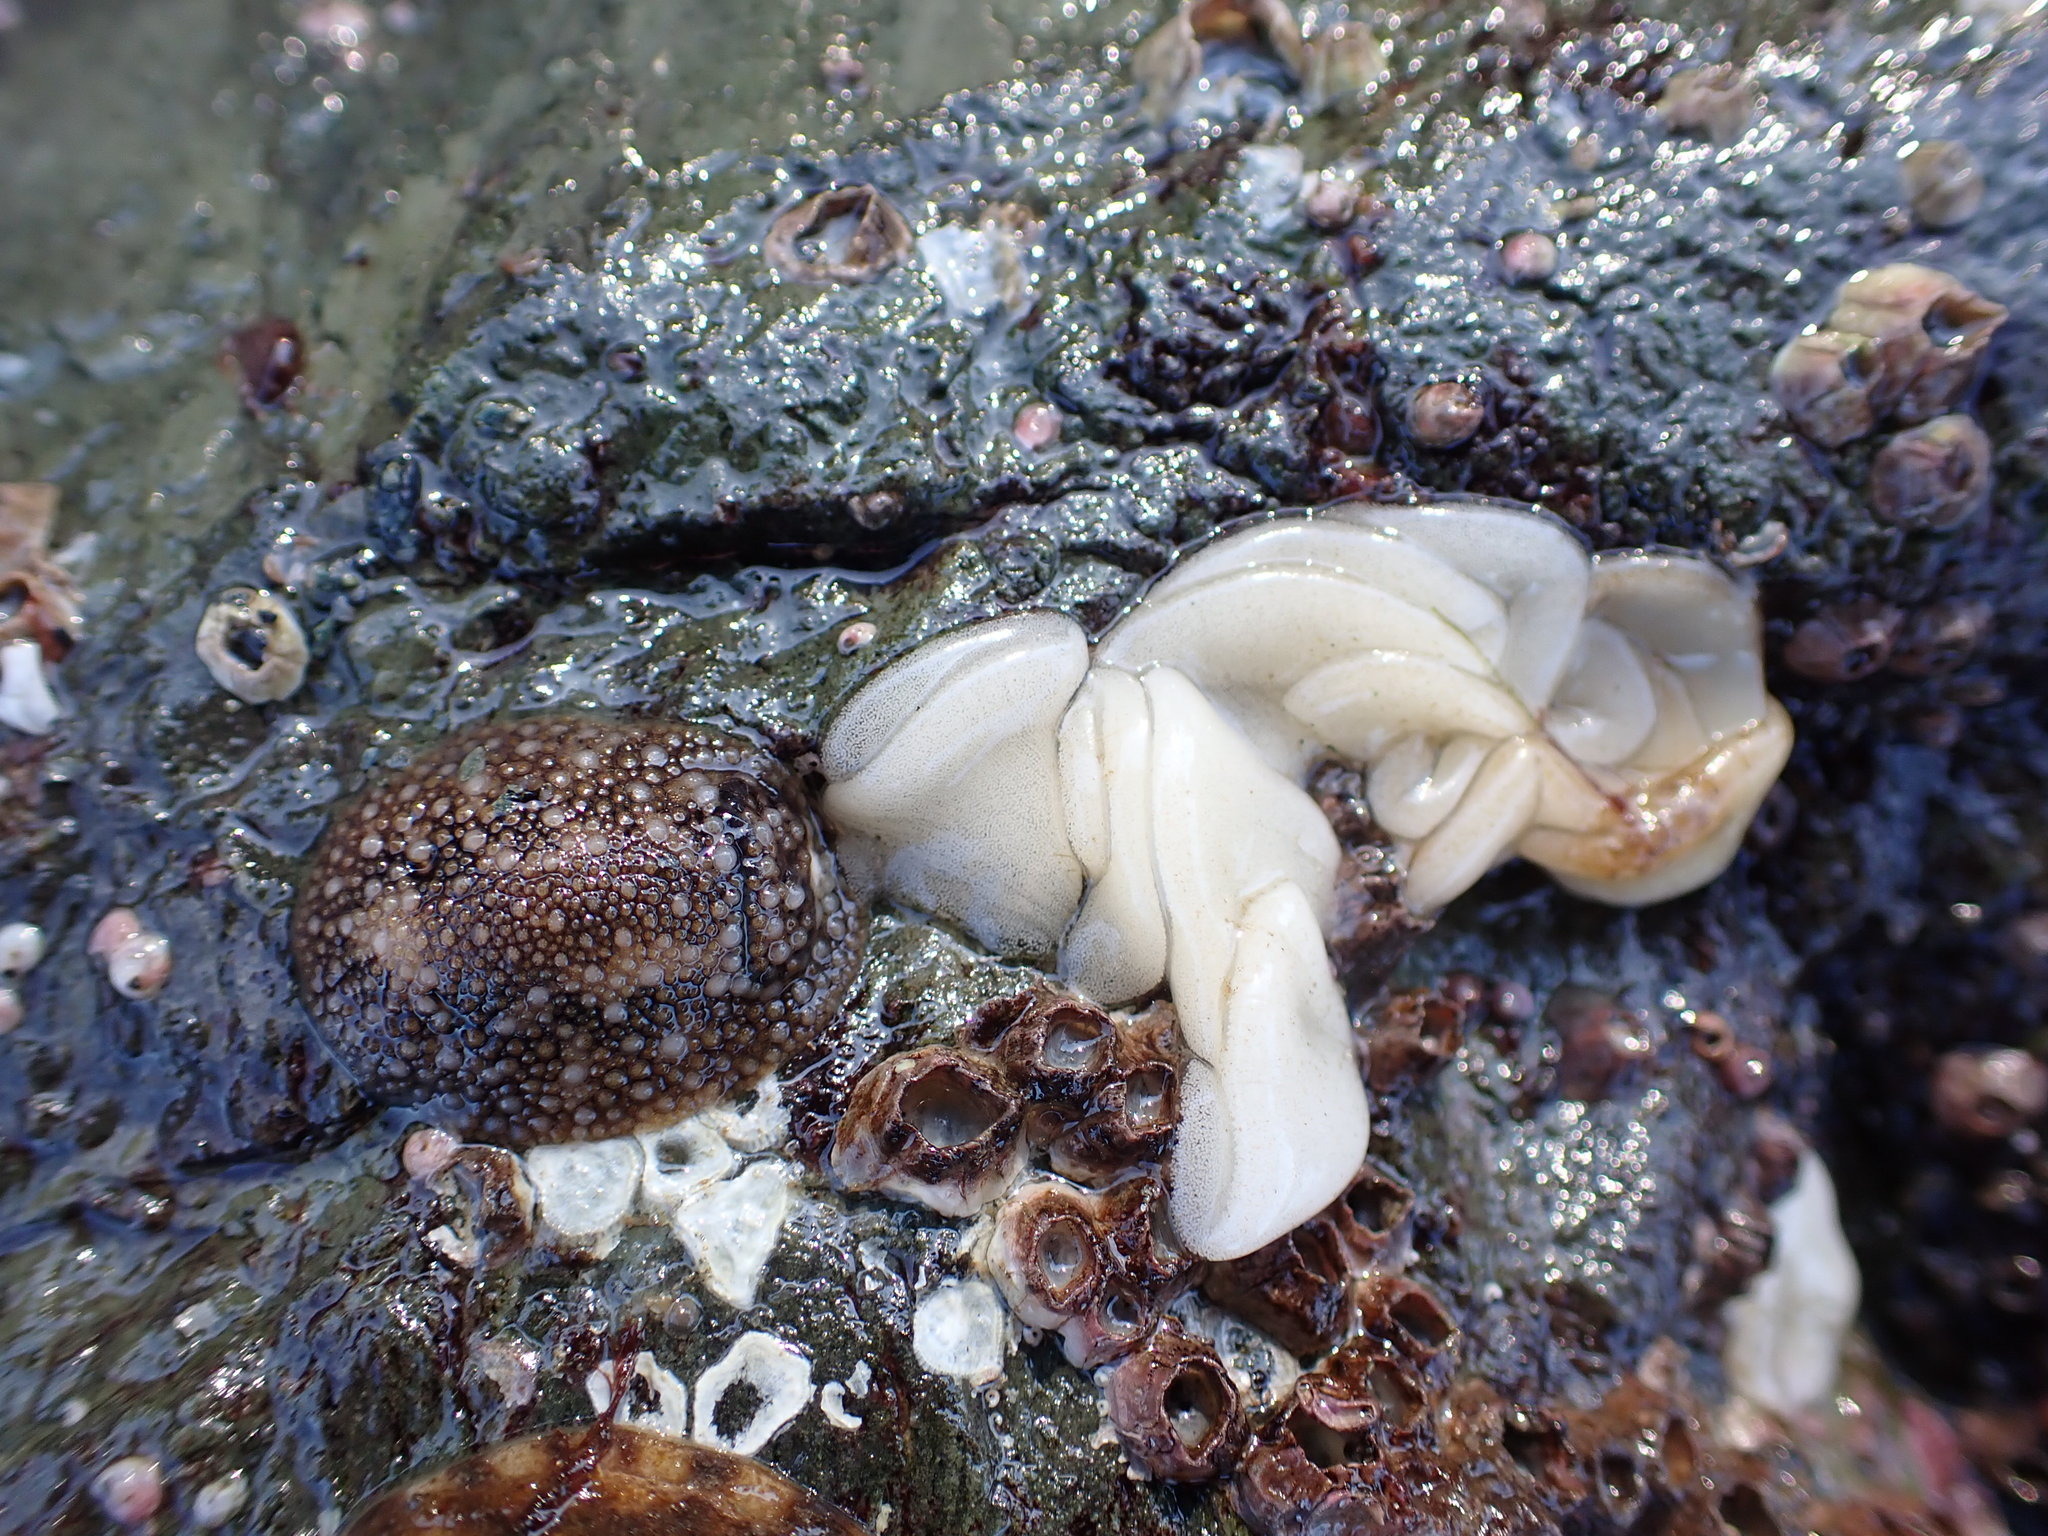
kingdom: Animalia
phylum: Mollusca
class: Gastropoda
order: Nudibranchia
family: Onchidorididae
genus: Onchidoris
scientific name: Onchidoris bilamellata
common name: Barnacle-eating onchidoris
